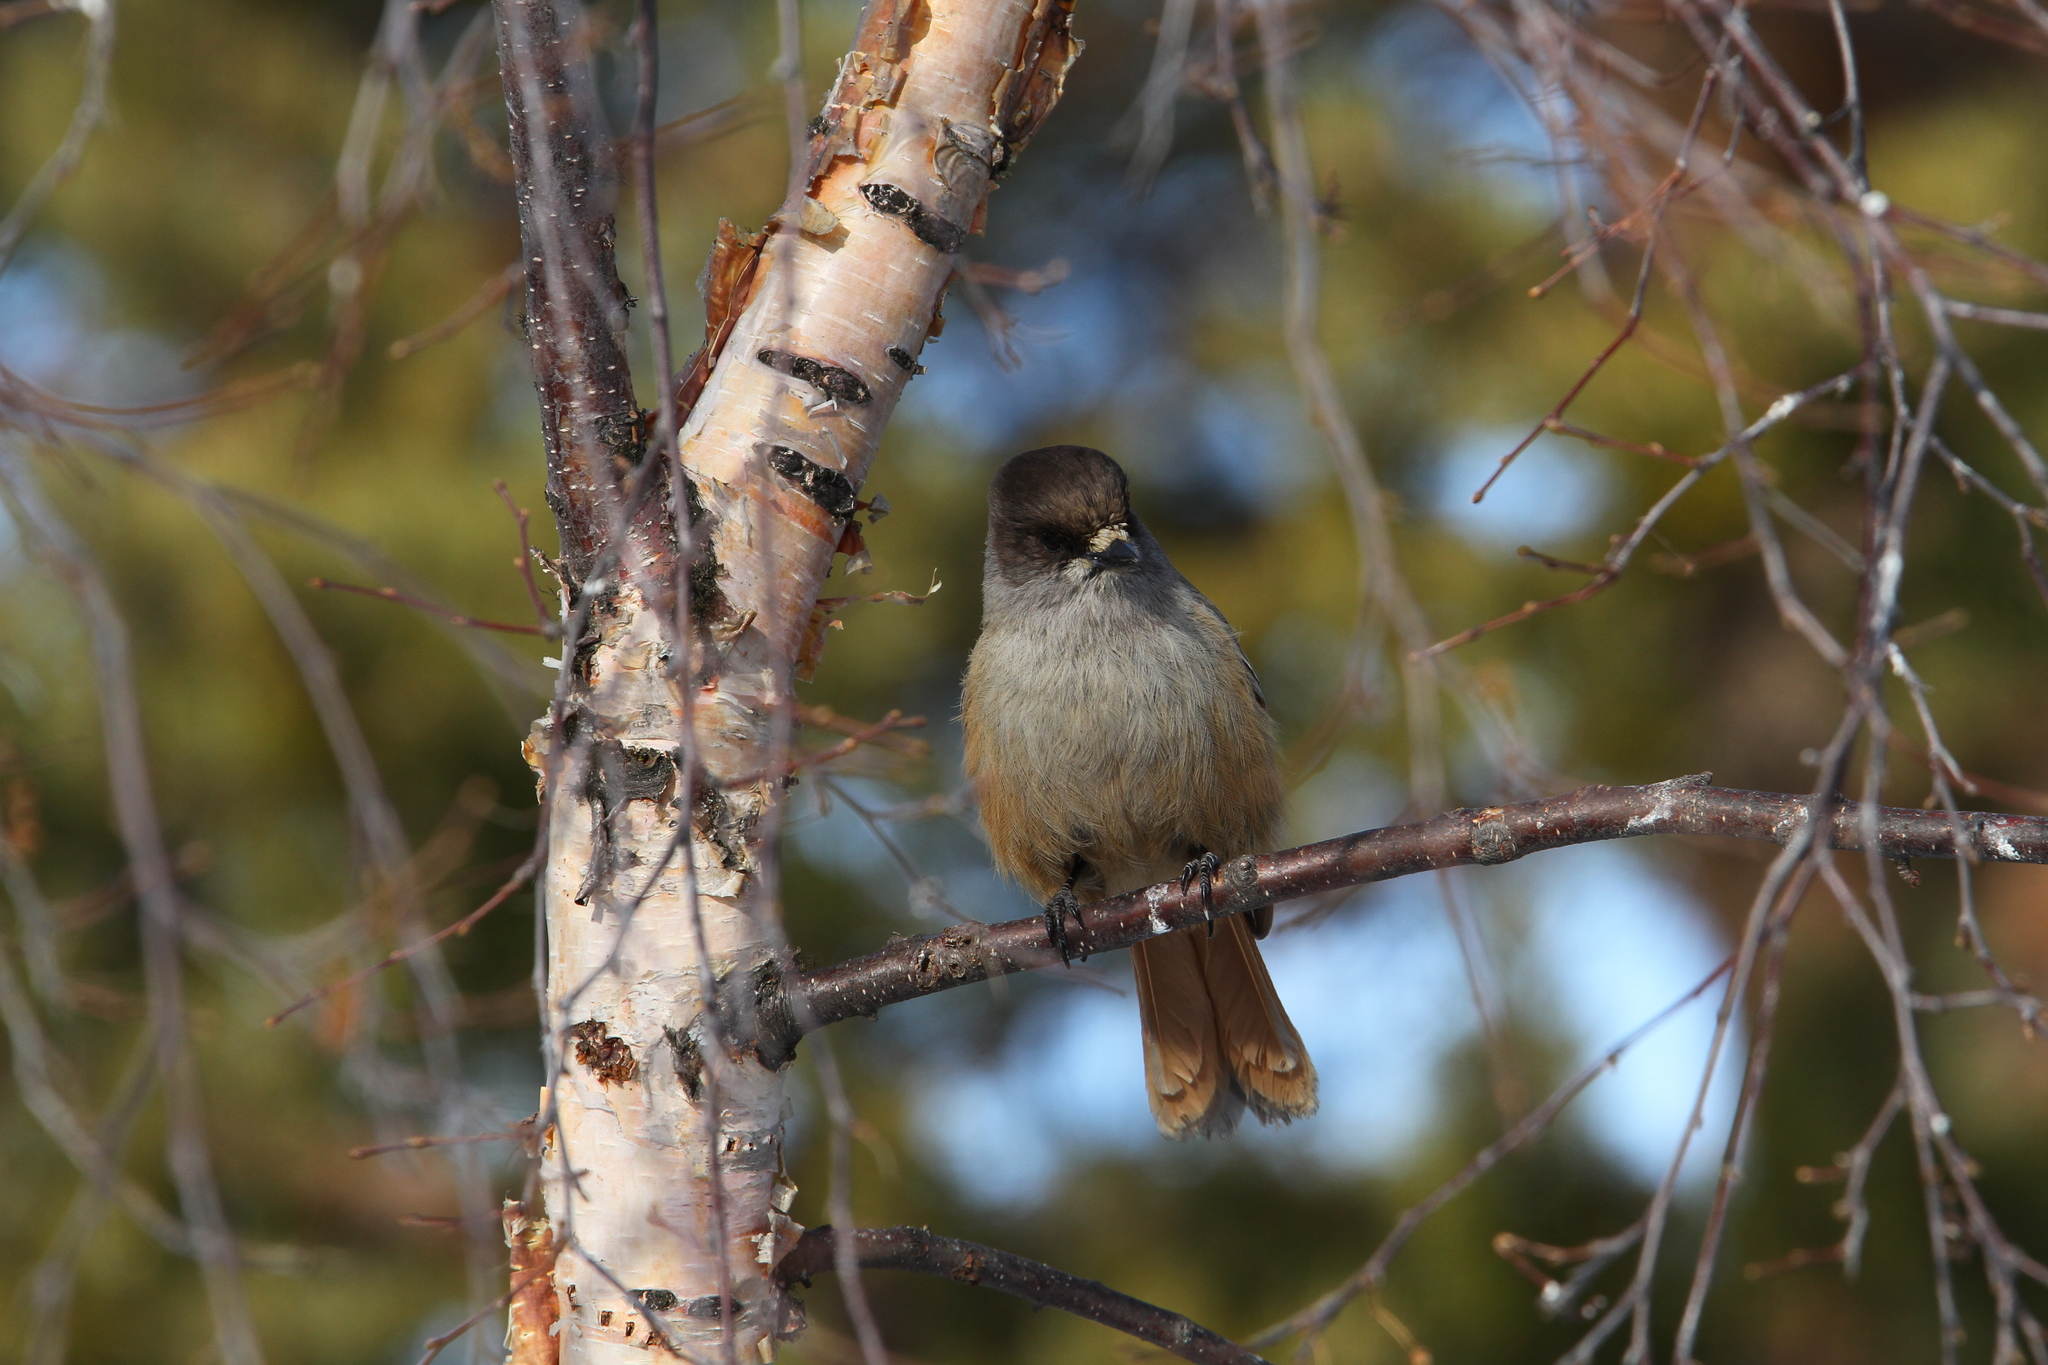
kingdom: Animalia
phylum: Chordata
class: Aves
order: Passeriformes
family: Corvidae
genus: Perisoreus
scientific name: Perisoreus infaustus
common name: Siberian jay
